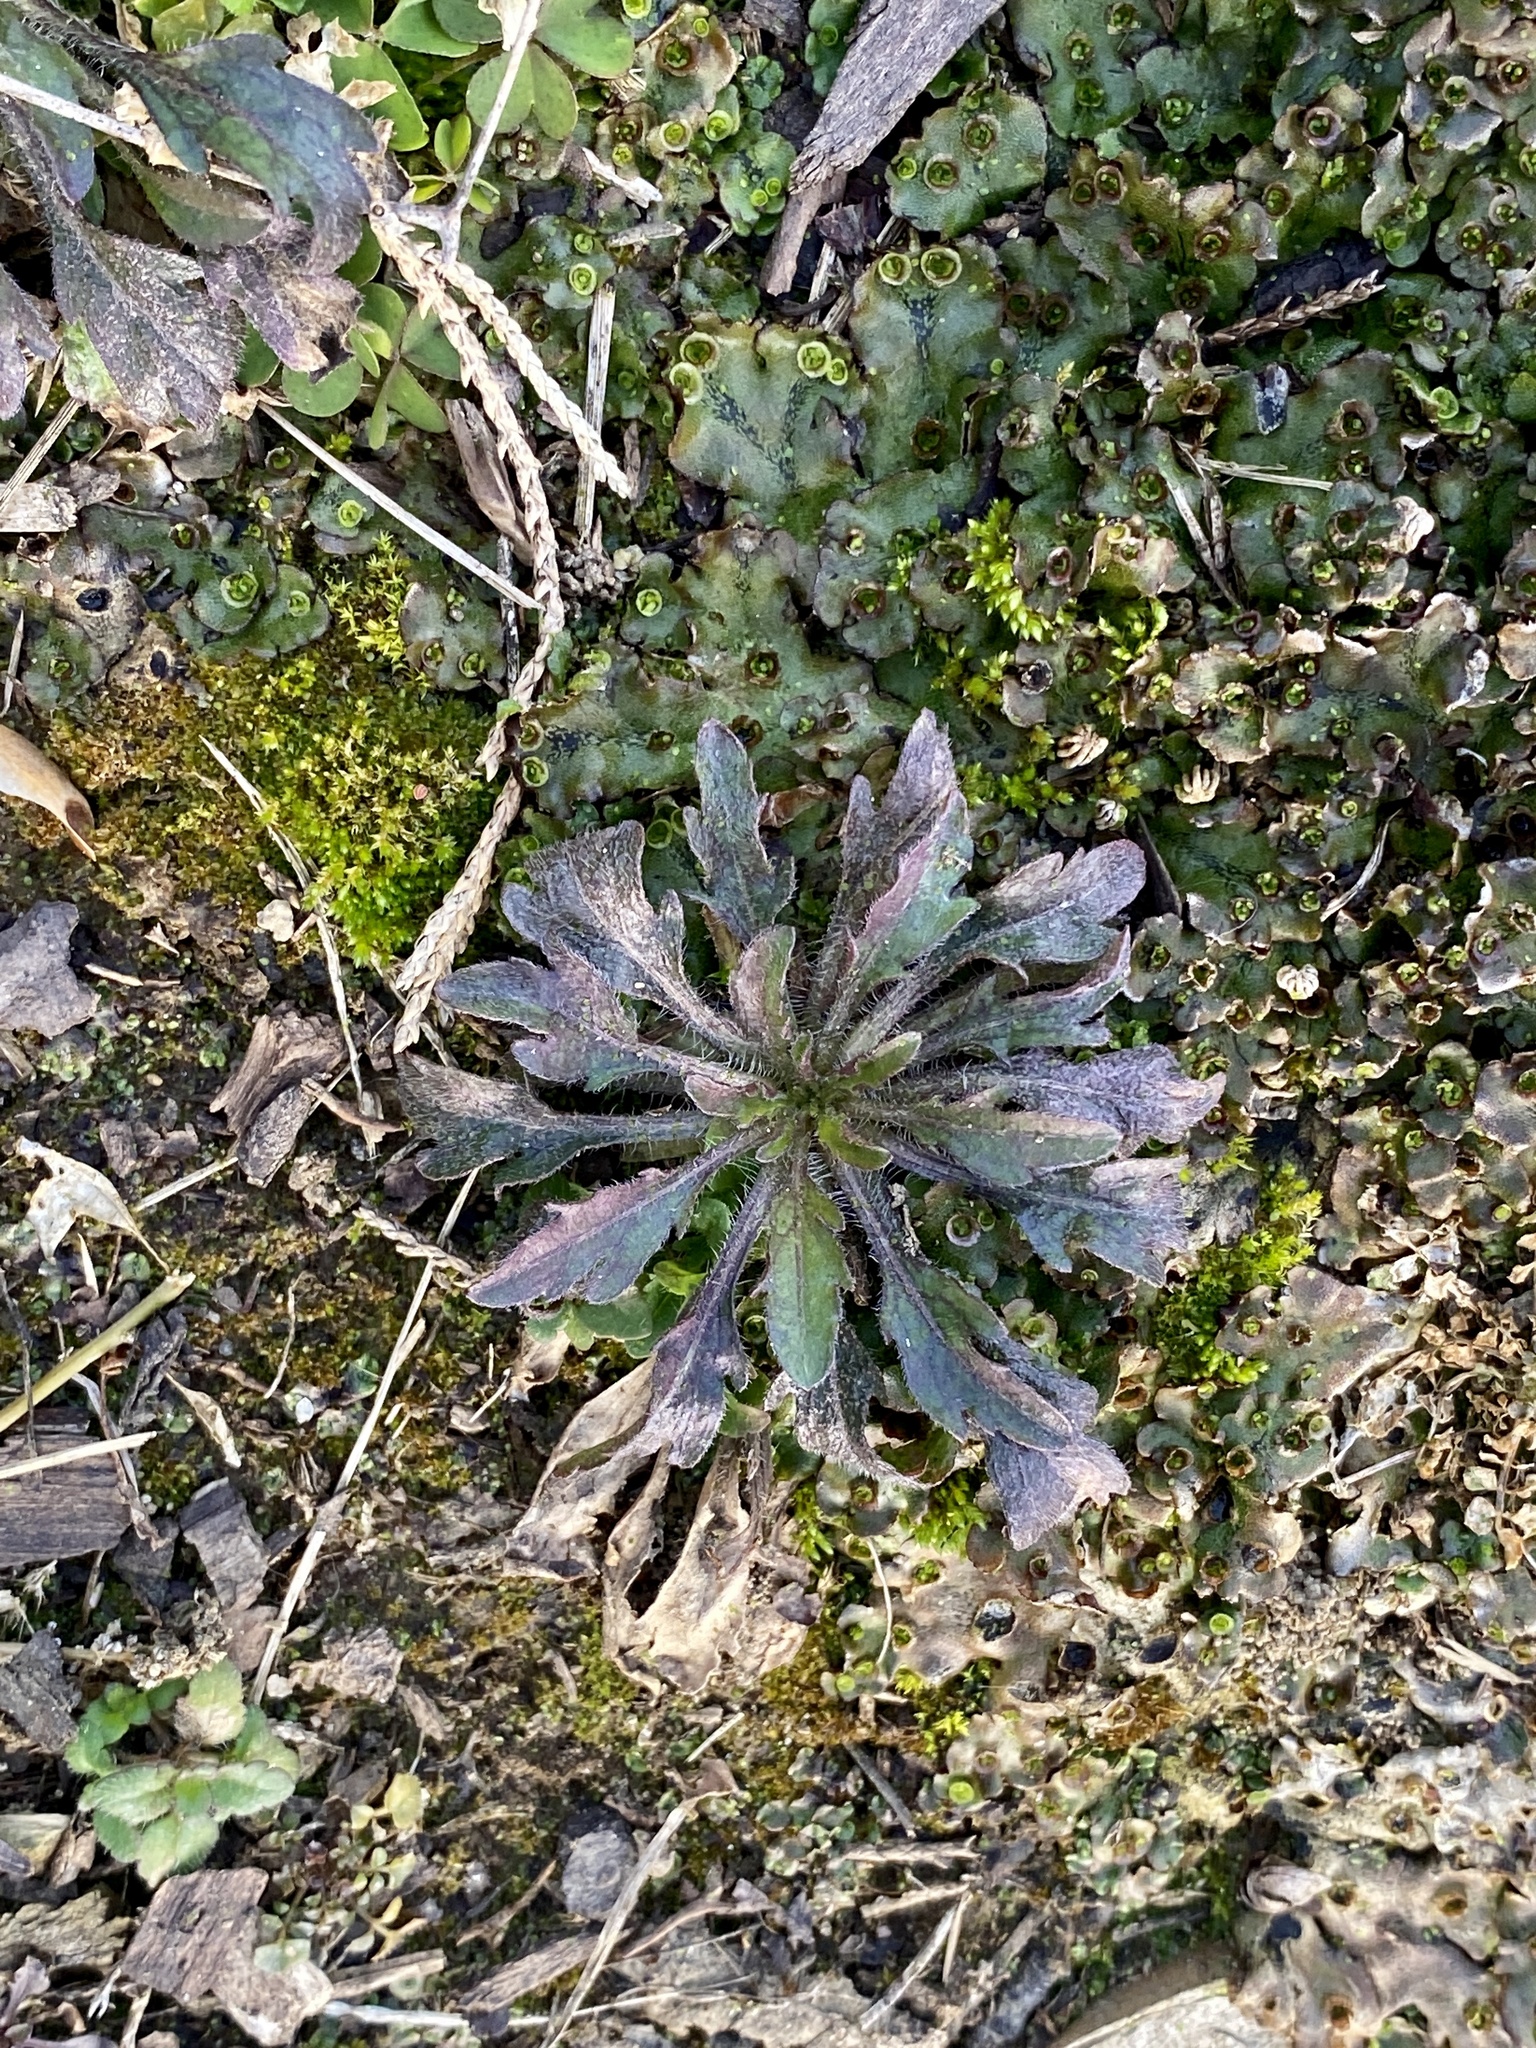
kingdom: Plantae
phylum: Tracheophyta
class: Magnoliopsida
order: Asterales
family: Asteraceae
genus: Erigeron
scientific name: Erigeron canadensis
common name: Canadian fleabane
